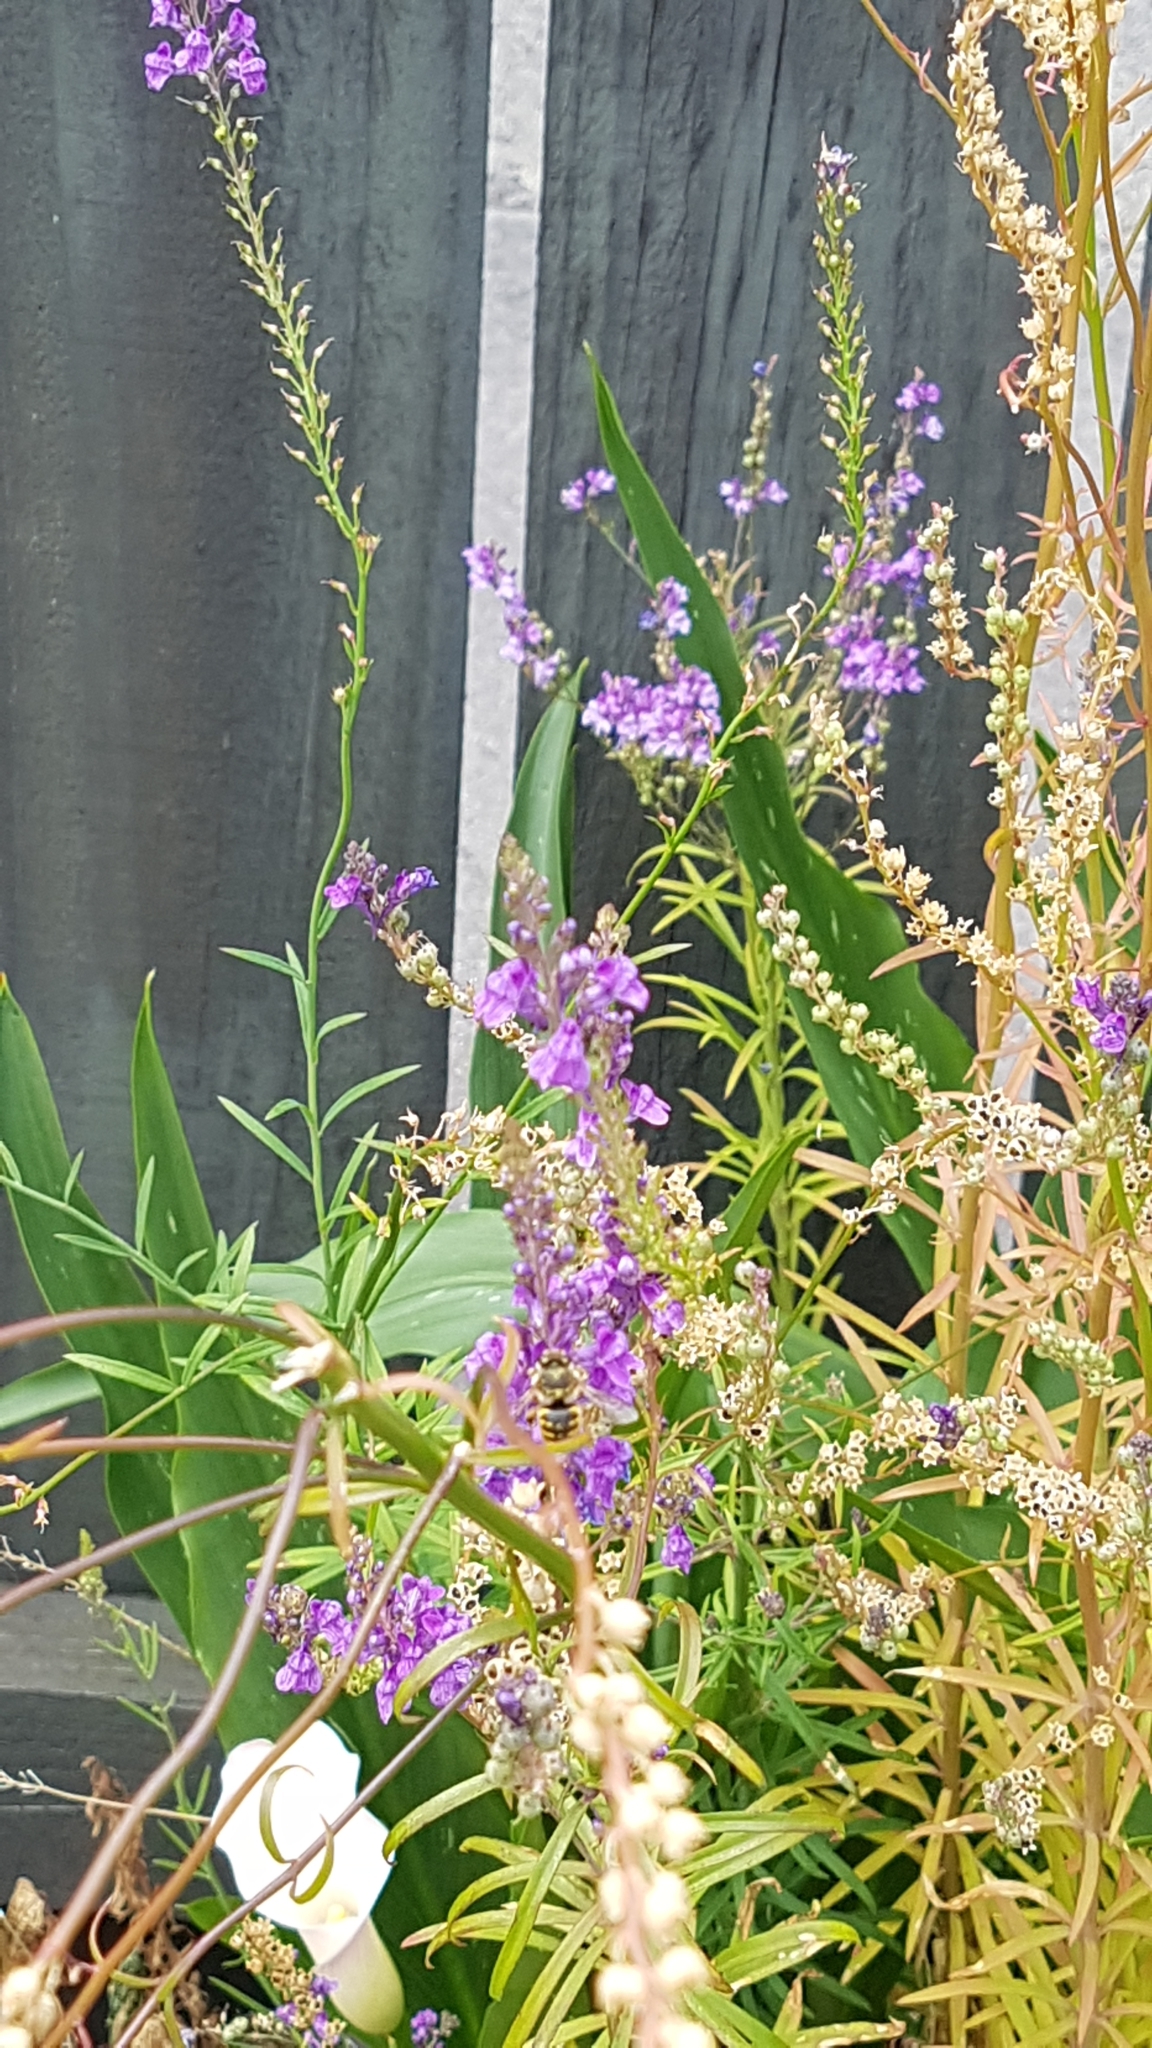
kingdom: Animalia
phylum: Arthropoda
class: Insecta
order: Hymenoptera
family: Megachilidae
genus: Anthidium
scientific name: Anthidium manicatum
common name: Wool carder bee
